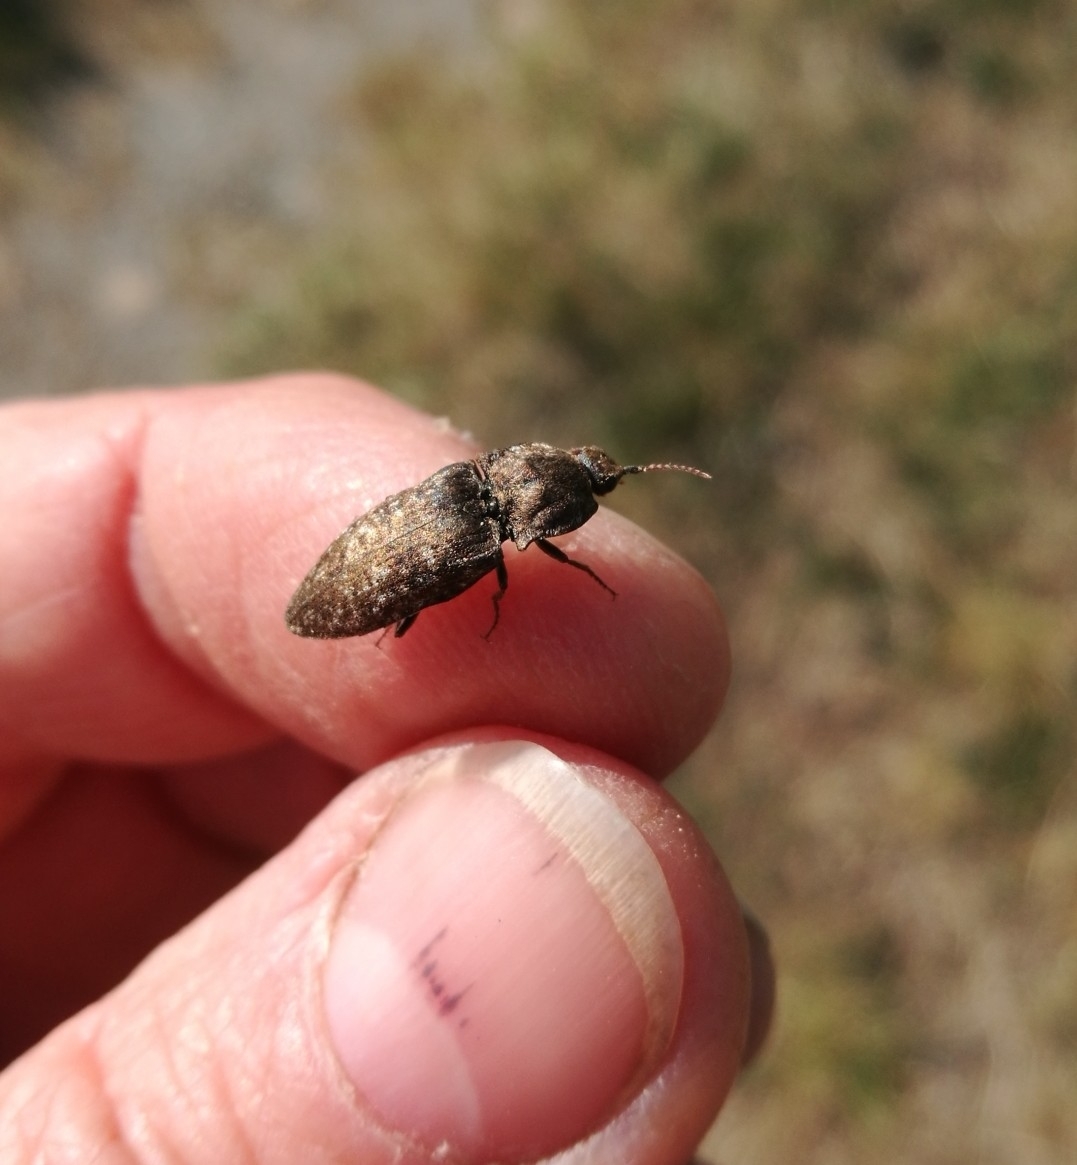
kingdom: Animalia
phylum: Arthropoda
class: Insecta
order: Coleoptera
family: Elateridae
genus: Agrypnus
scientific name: Agrypnus murinus
